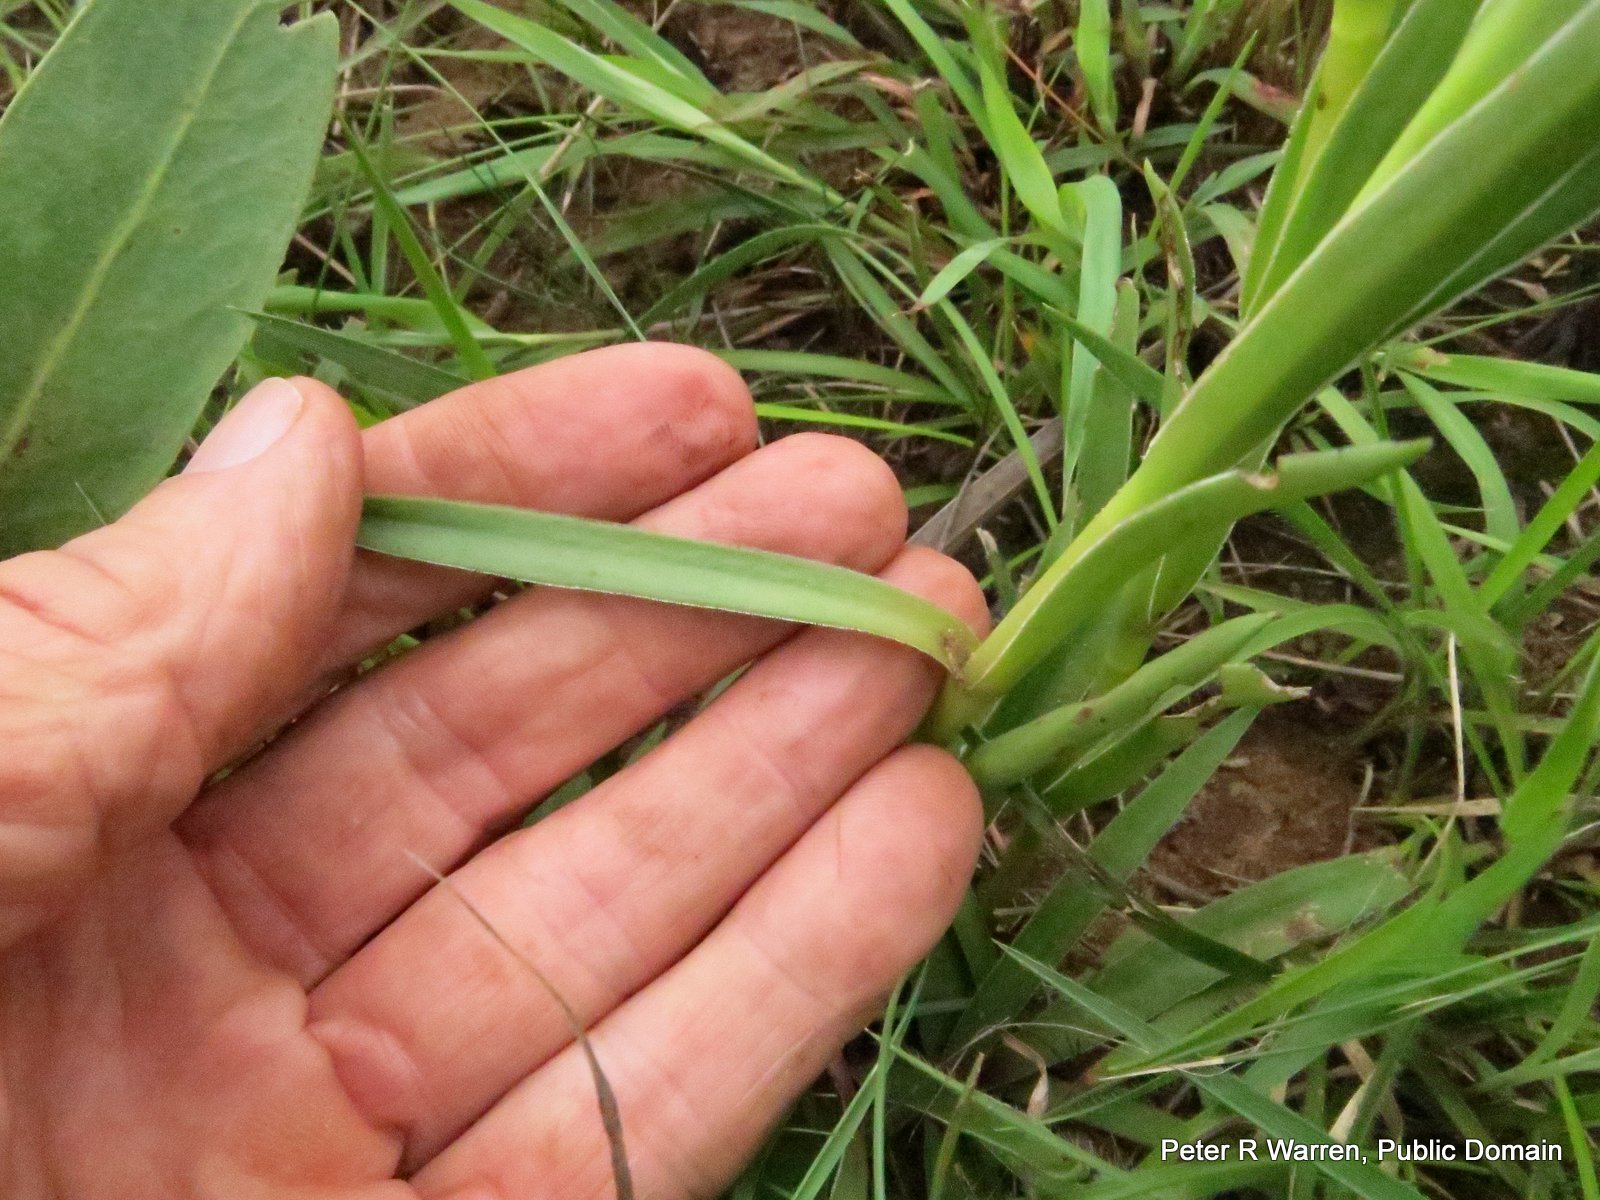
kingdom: Plantae
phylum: Tracheophyta
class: Magnoliopsida
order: Saxifragales
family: Crassulaceae
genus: Crassula
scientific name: Crassula vaginata
